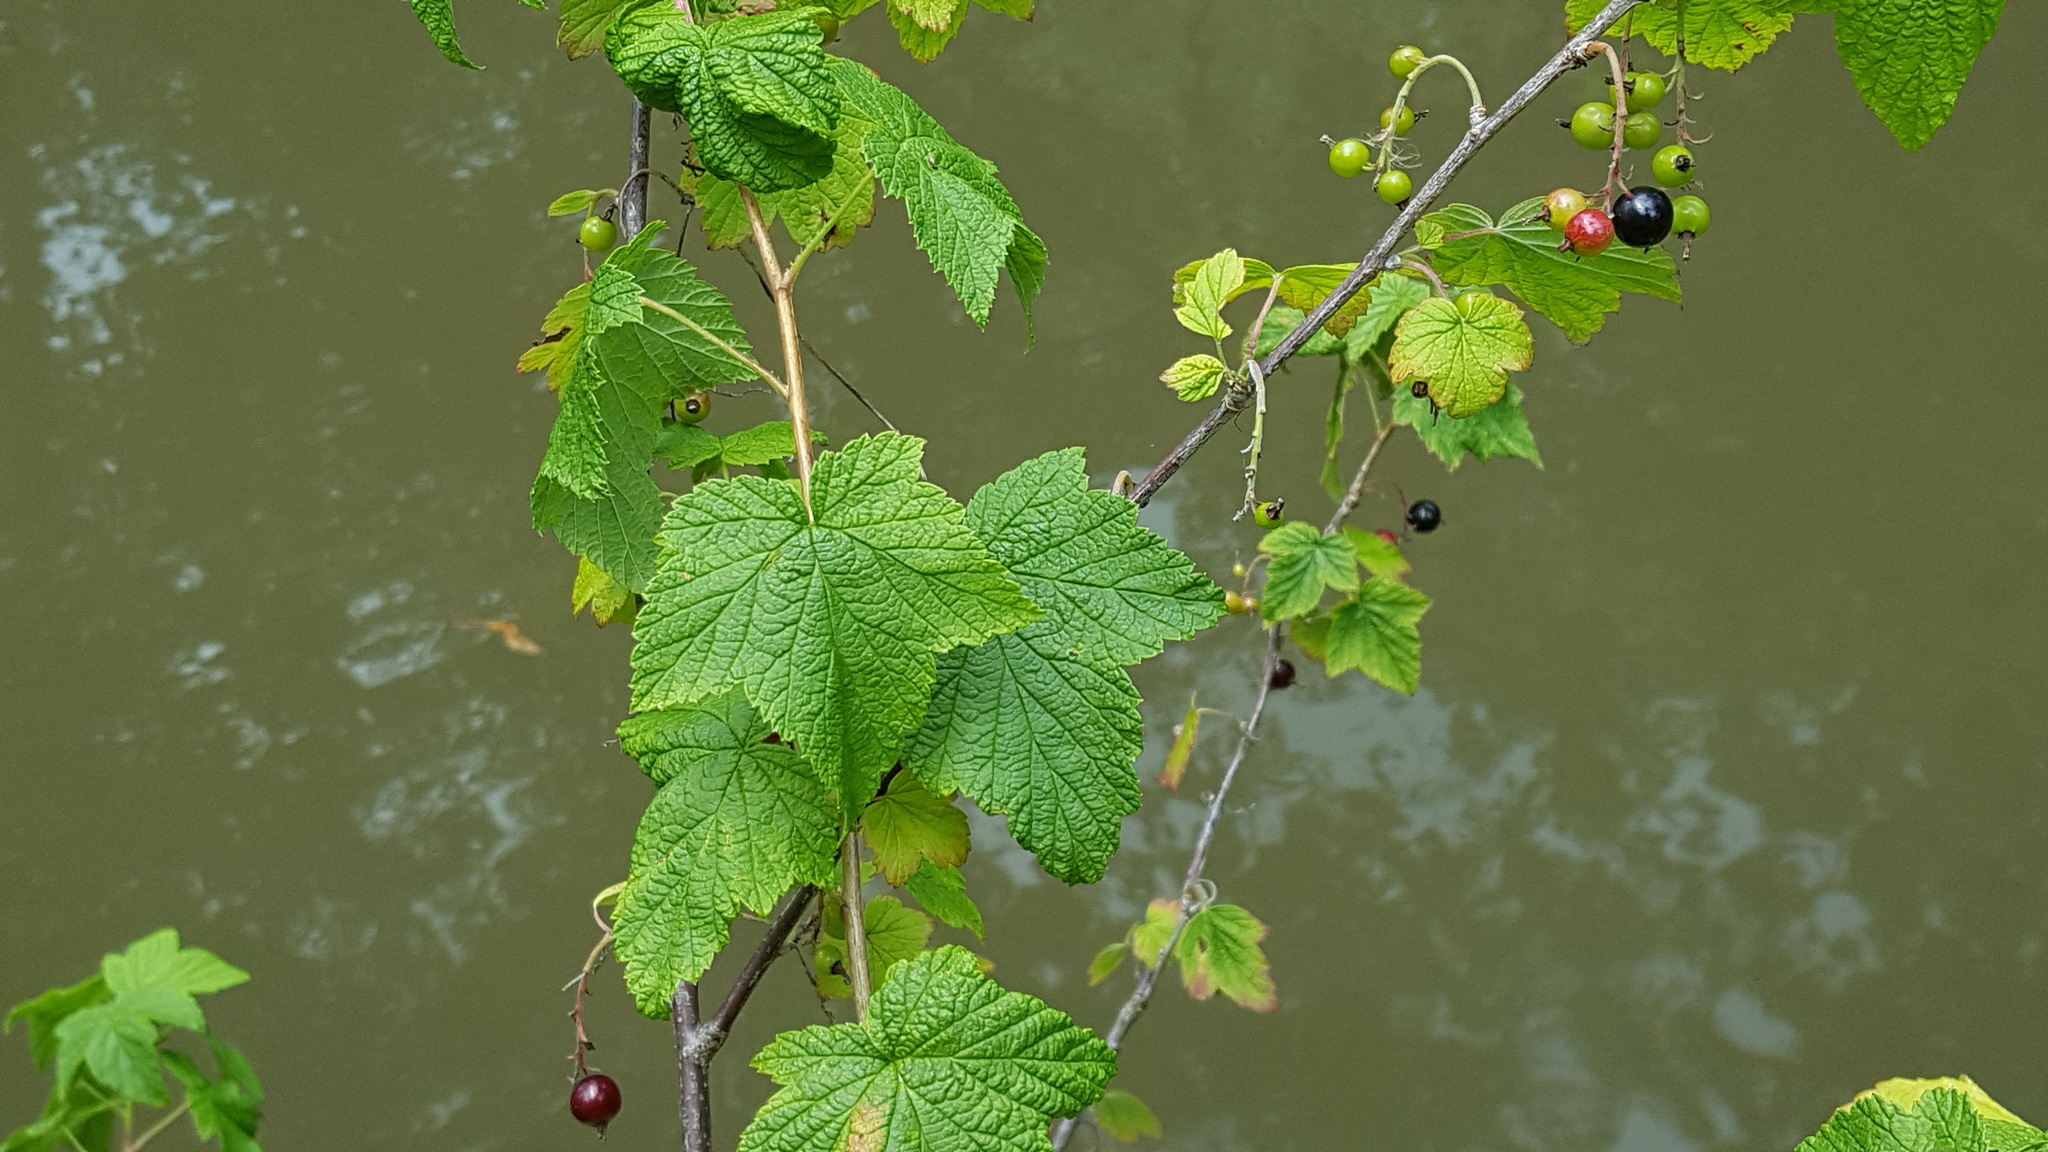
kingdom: Plantae
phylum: Tracheophyta
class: Magnoliopsida
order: Saxifragales
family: Grossulariaceae
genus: Ribes
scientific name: Ribes americanum
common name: American black currant
